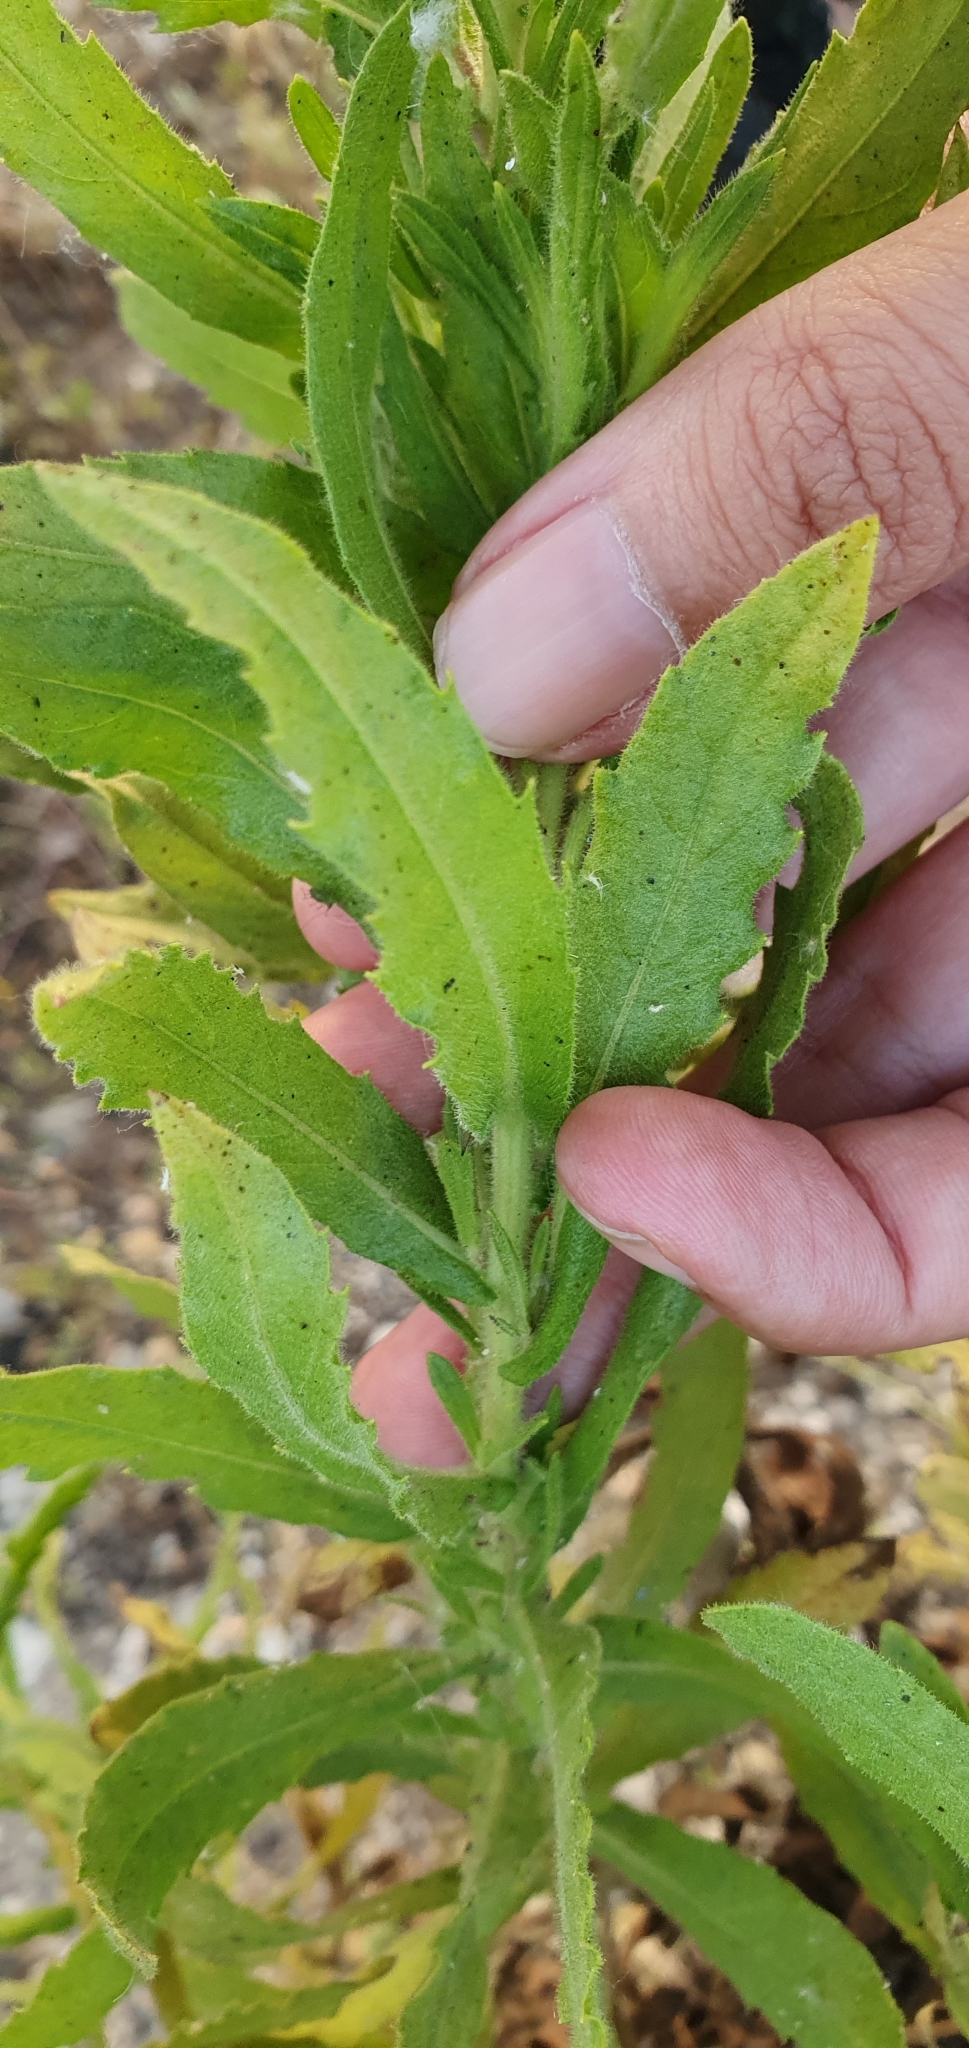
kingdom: Plantae
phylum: Tracheophyta
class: Magnoliopsida
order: Asterales
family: Asteraceae
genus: Dittrichia
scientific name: Dittrichia viscosa
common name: Woody fleabane
